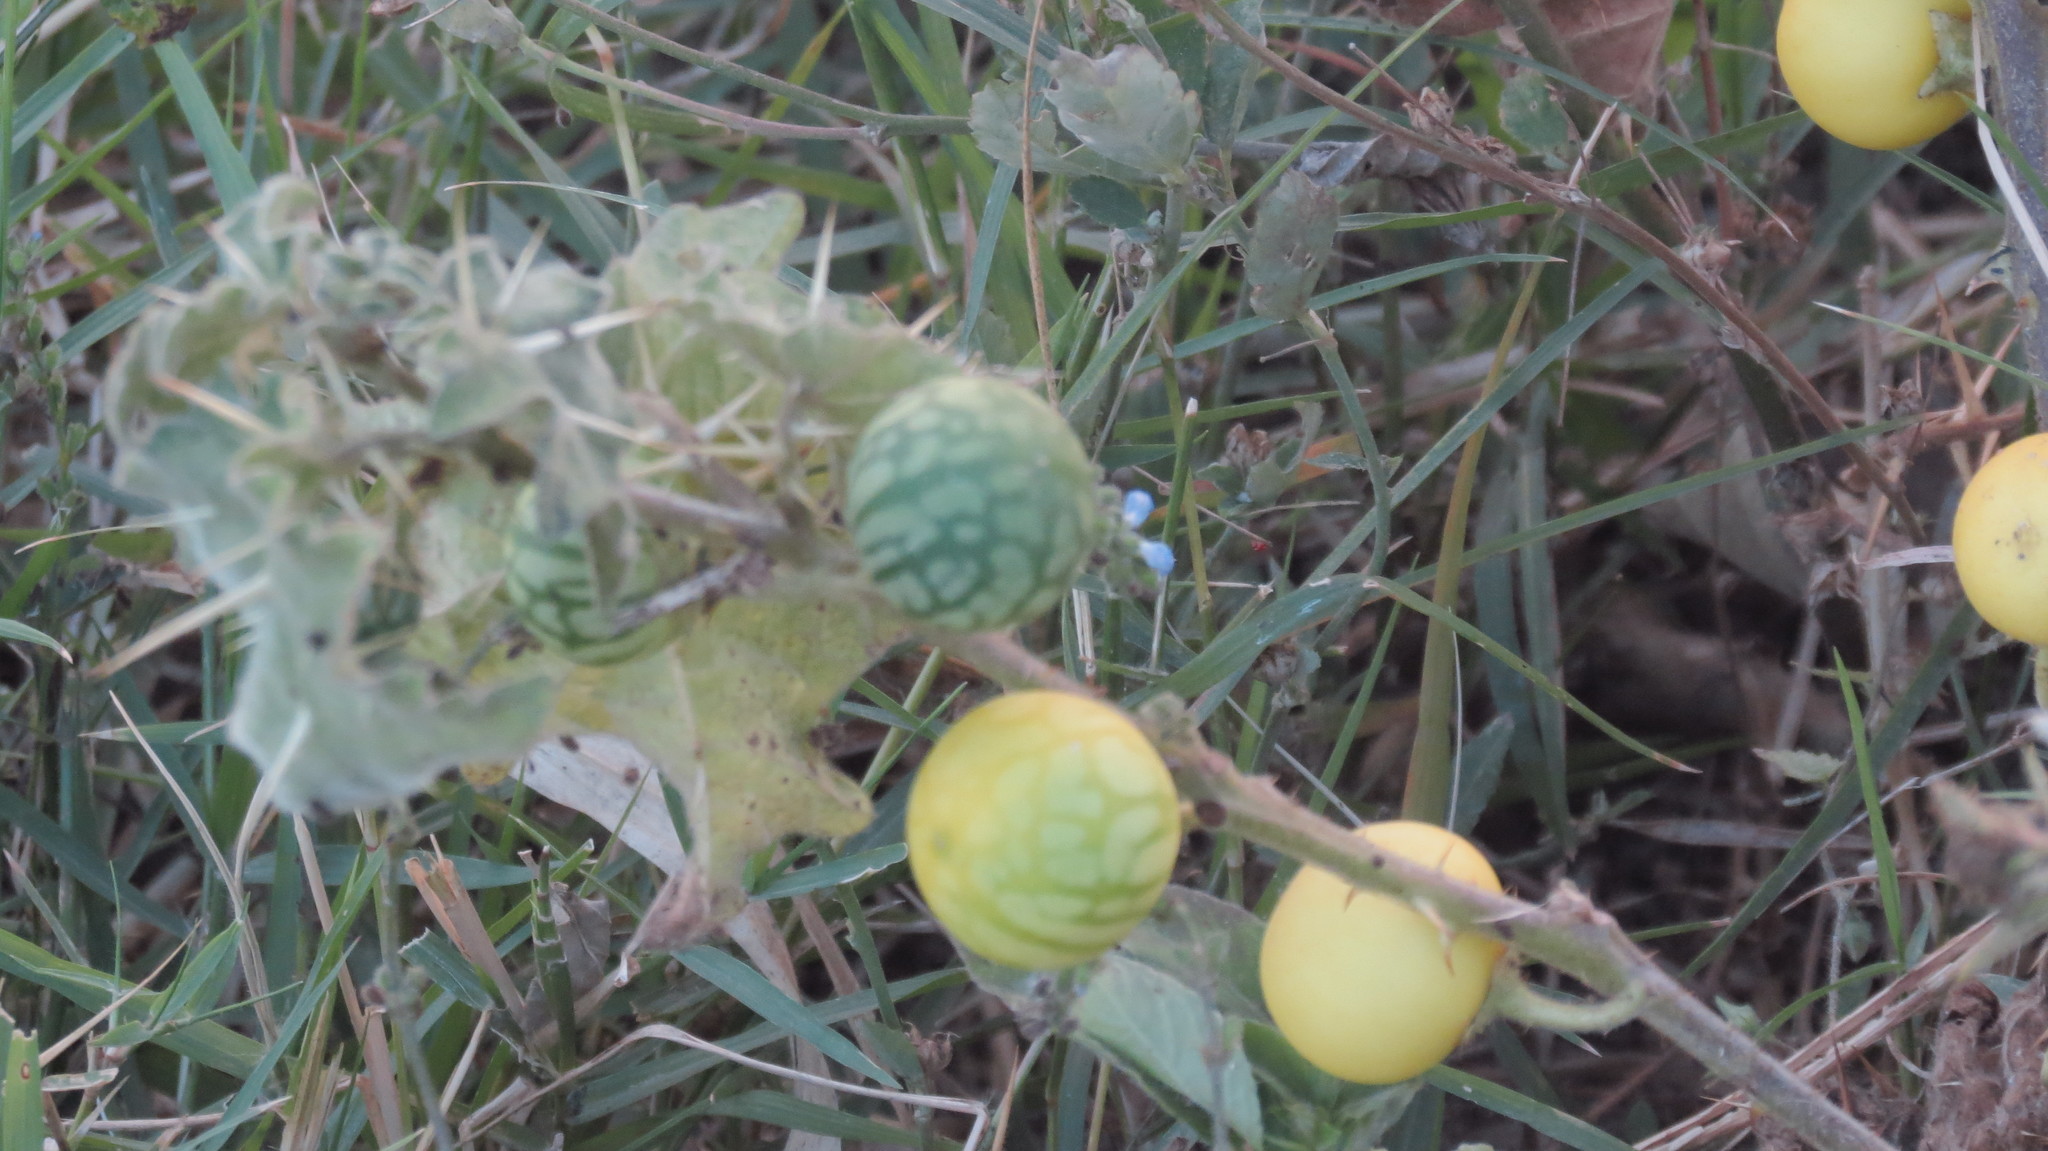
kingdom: Plantae
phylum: Tracheophyta
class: Magnoliopsida
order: Solanales
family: Solanaceae
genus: Solanum
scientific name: Solanum viarum
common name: Tropical soda apple
